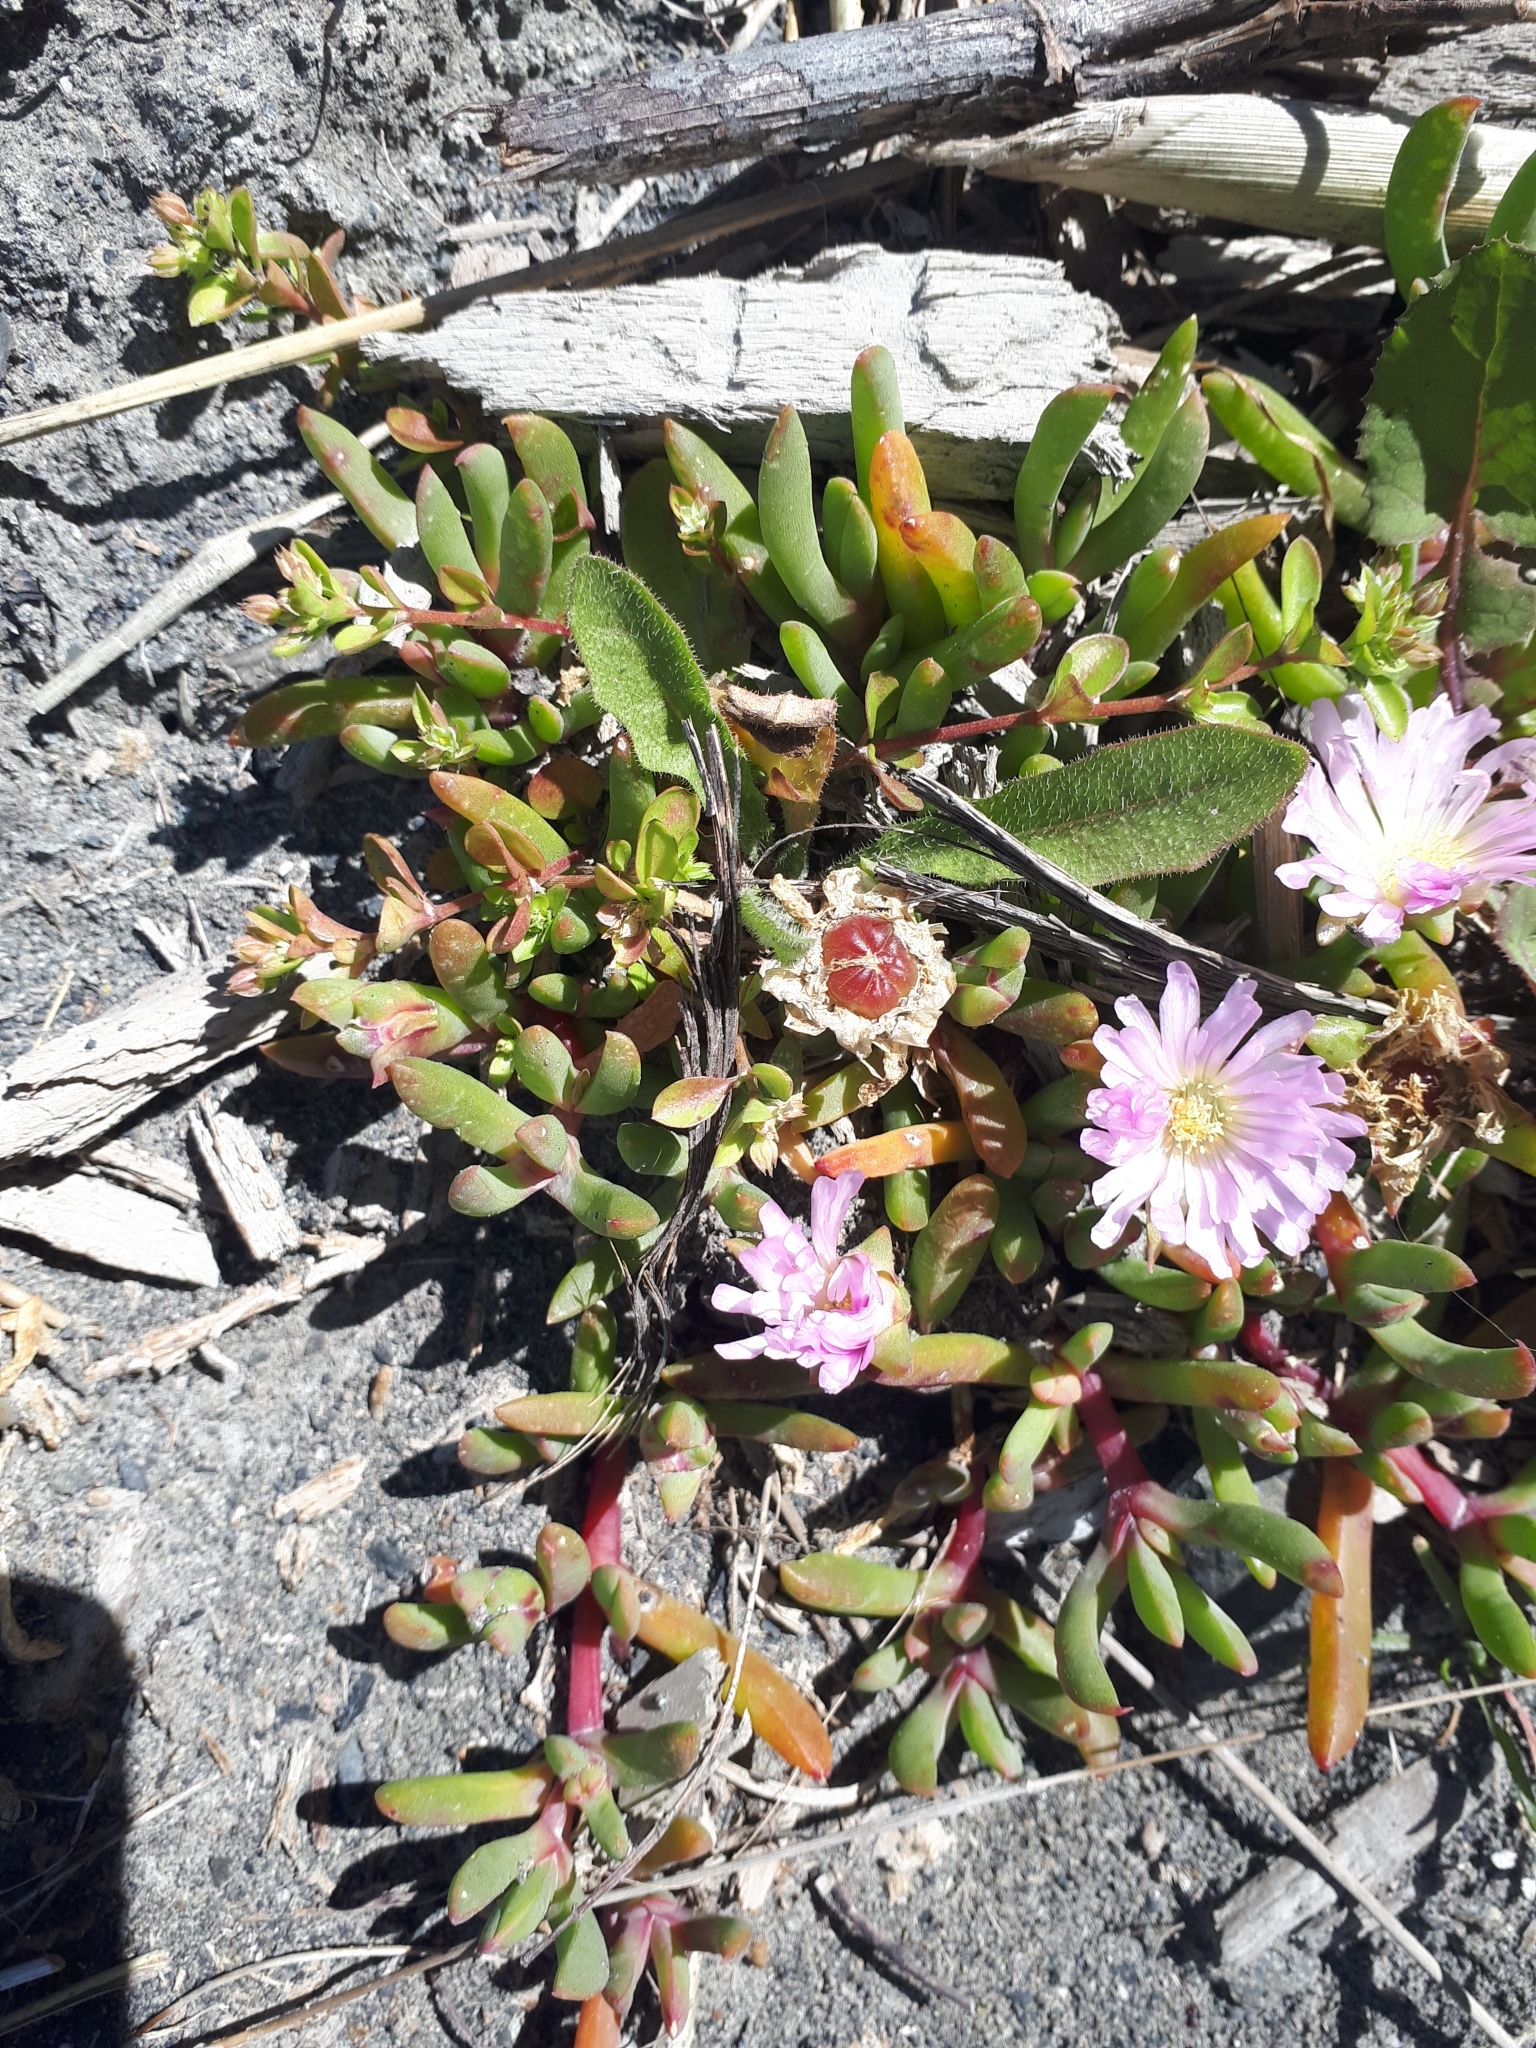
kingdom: Plantae
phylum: Tracheophyta
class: Magnoliopsida
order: Caryophyllales
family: Aizoaceae
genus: Disphyma
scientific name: Disphyma australe
